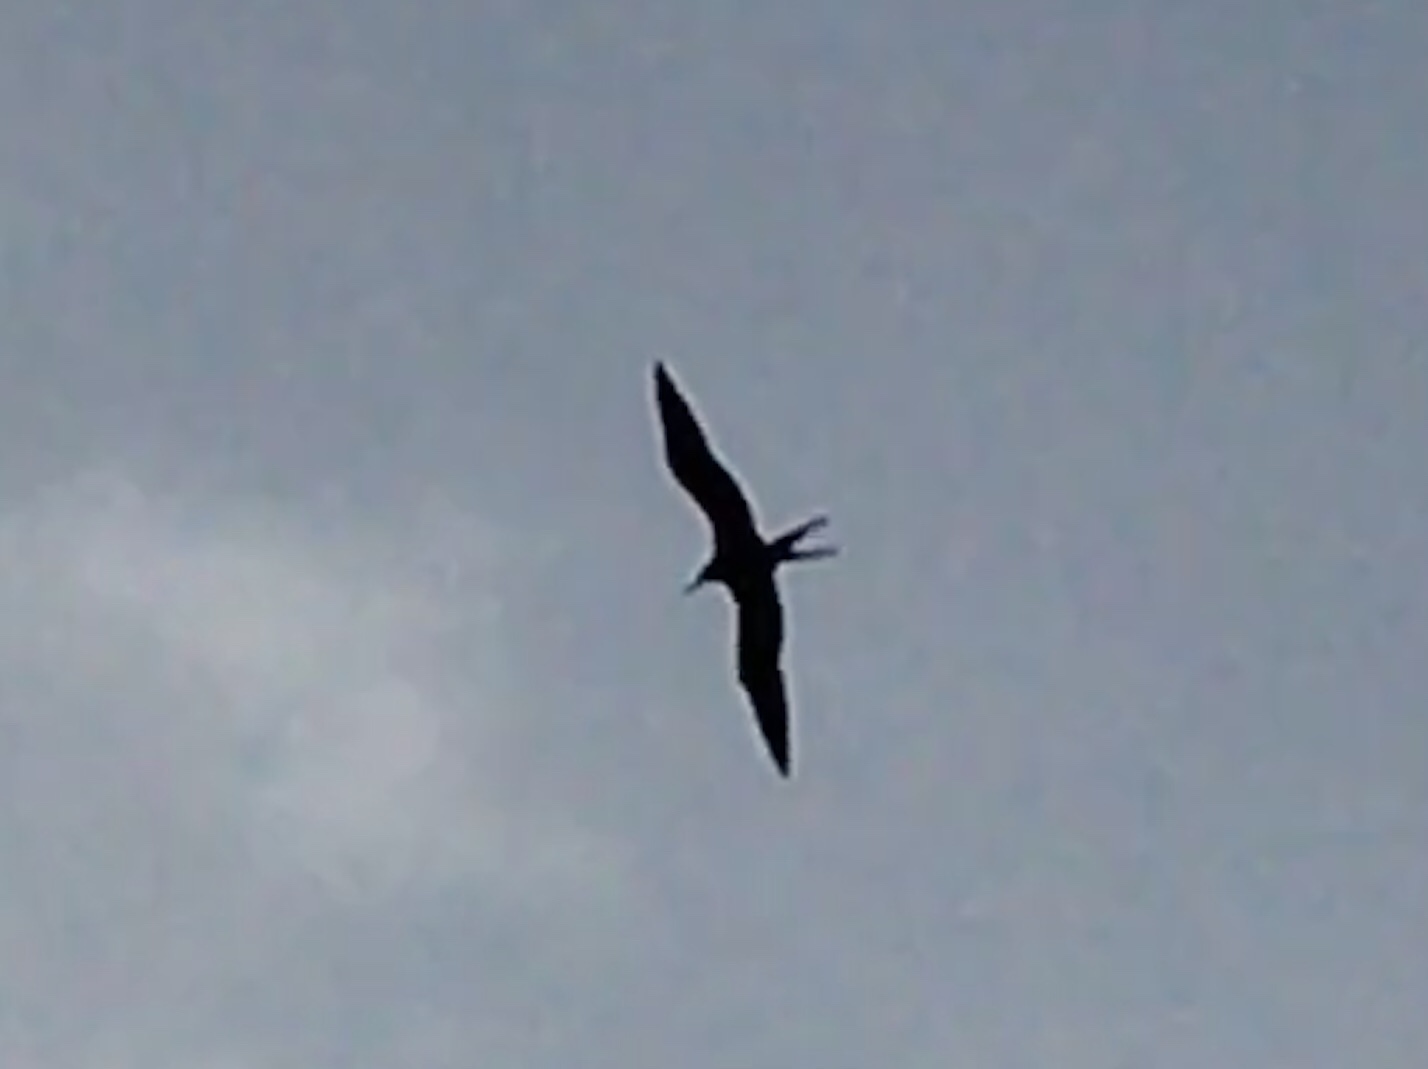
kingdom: Animalia
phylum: Chordata
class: Aves
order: Suliformes
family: Fregatidae
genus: Fregata
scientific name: Fregata magnificens
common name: Magnificent frigatebird
